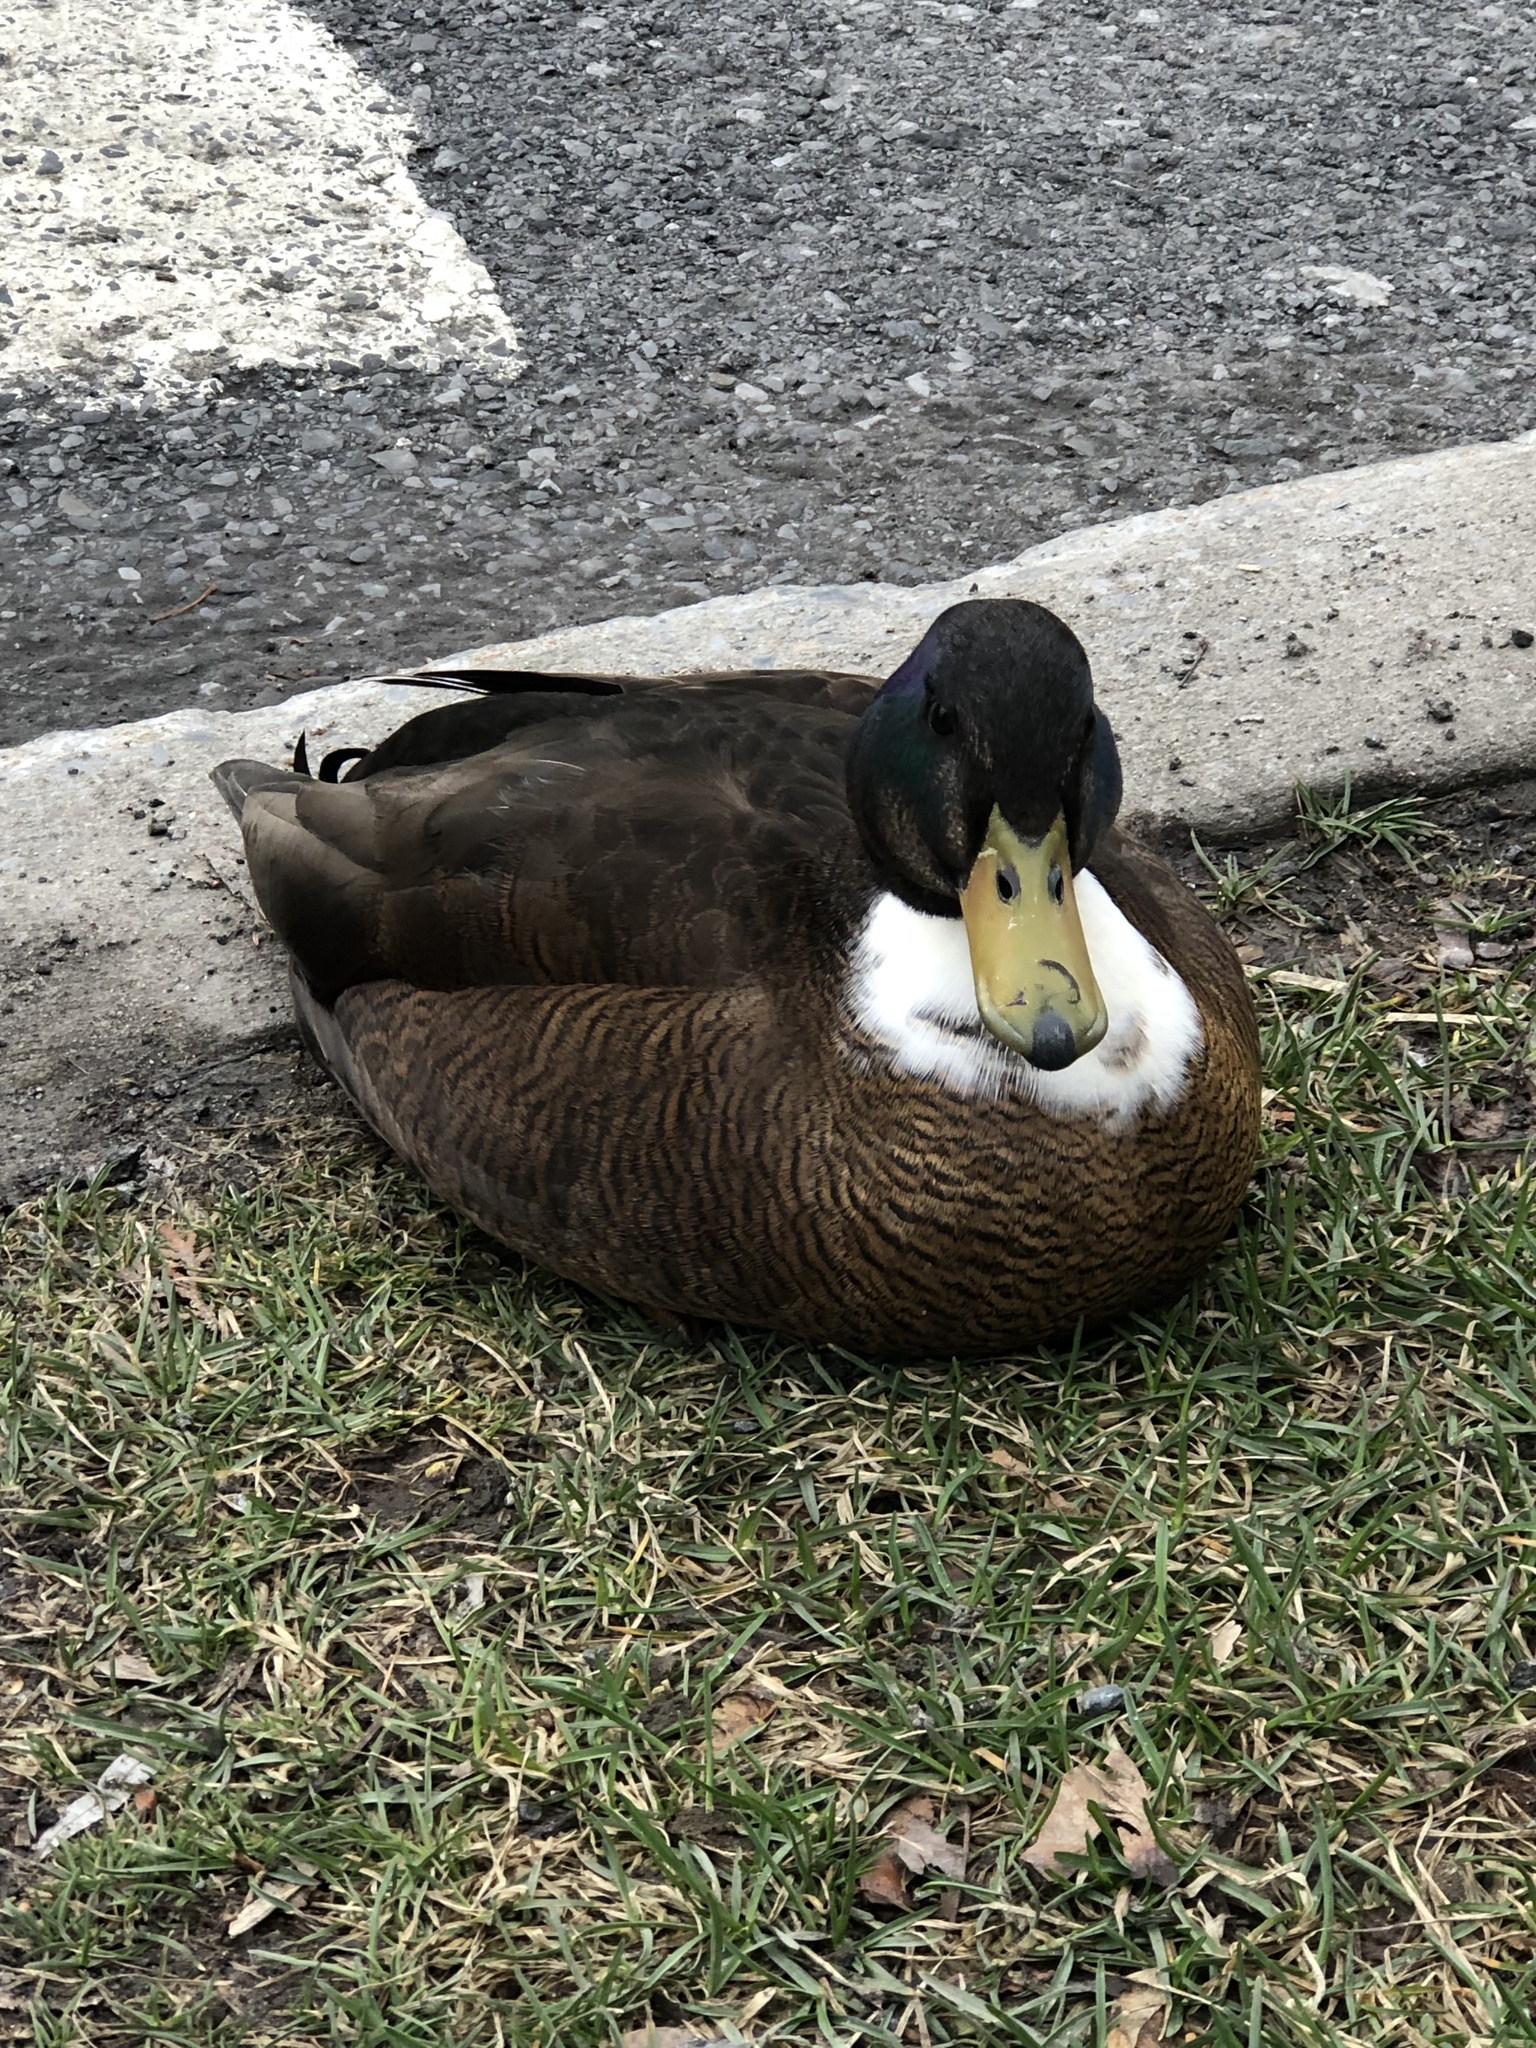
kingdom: Animalia
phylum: Chordata
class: Aves
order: Anseriformes
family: Anatidae
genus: Anas
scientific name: Anas platyrhynchos
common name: Mallard
